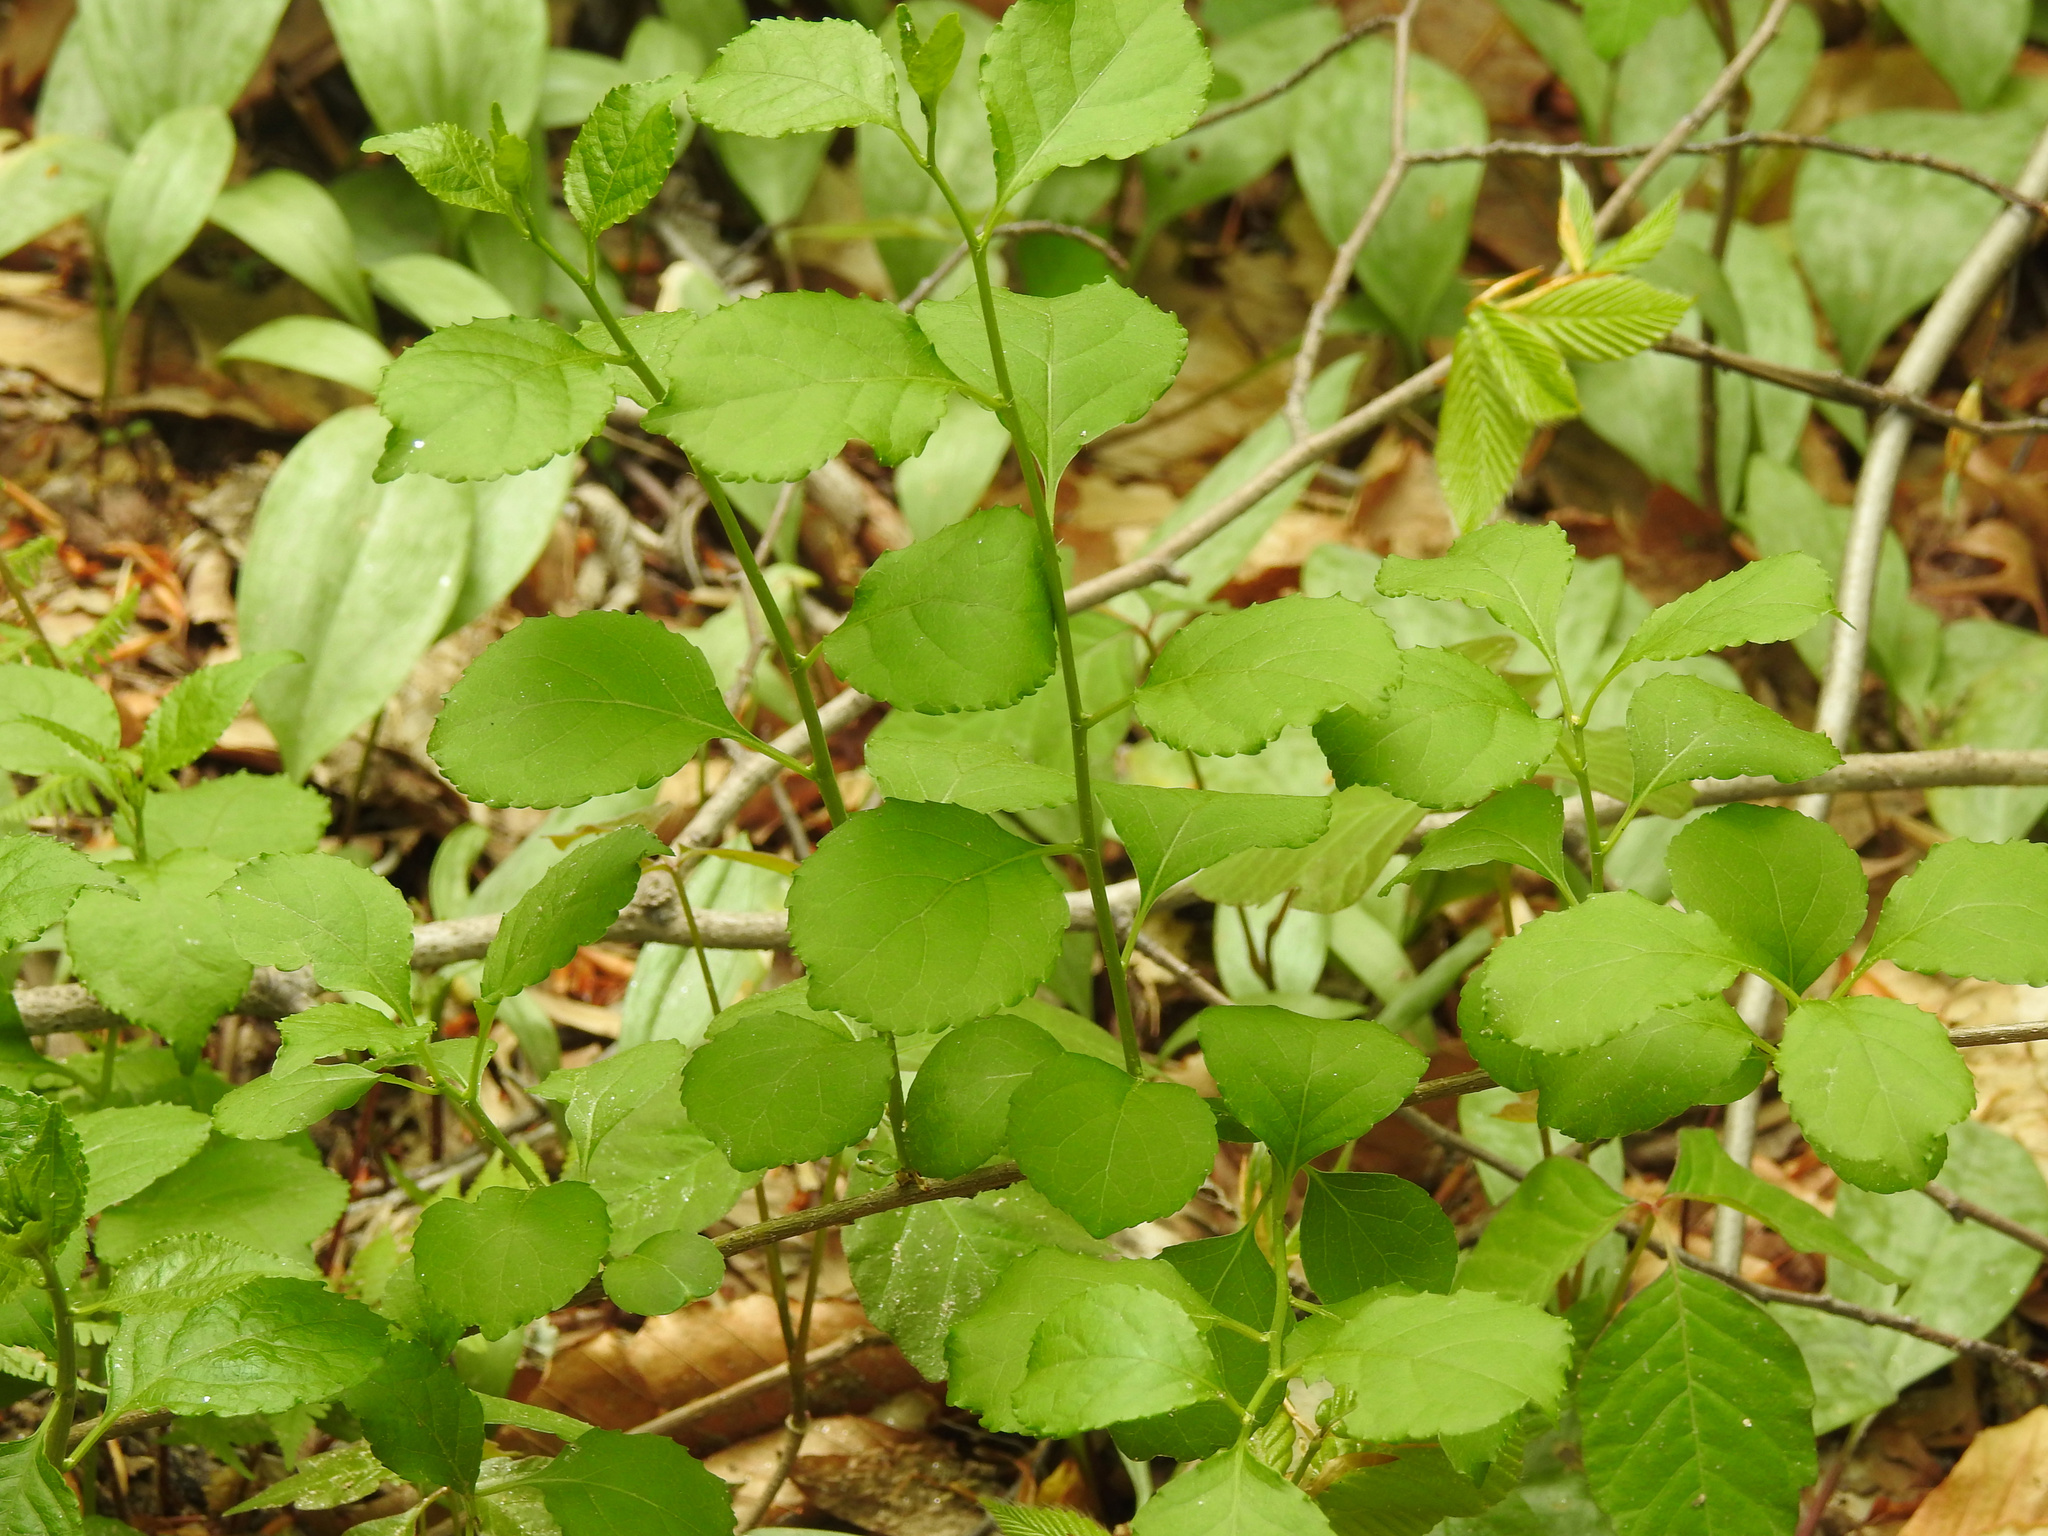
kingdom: Plantae
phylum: Tracheophyta
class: Magnoliopsida
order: Celastrales
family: Celastraceae
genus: Celastrus
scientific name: Celastrus orbiculatus
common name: Oriental bittersweet
